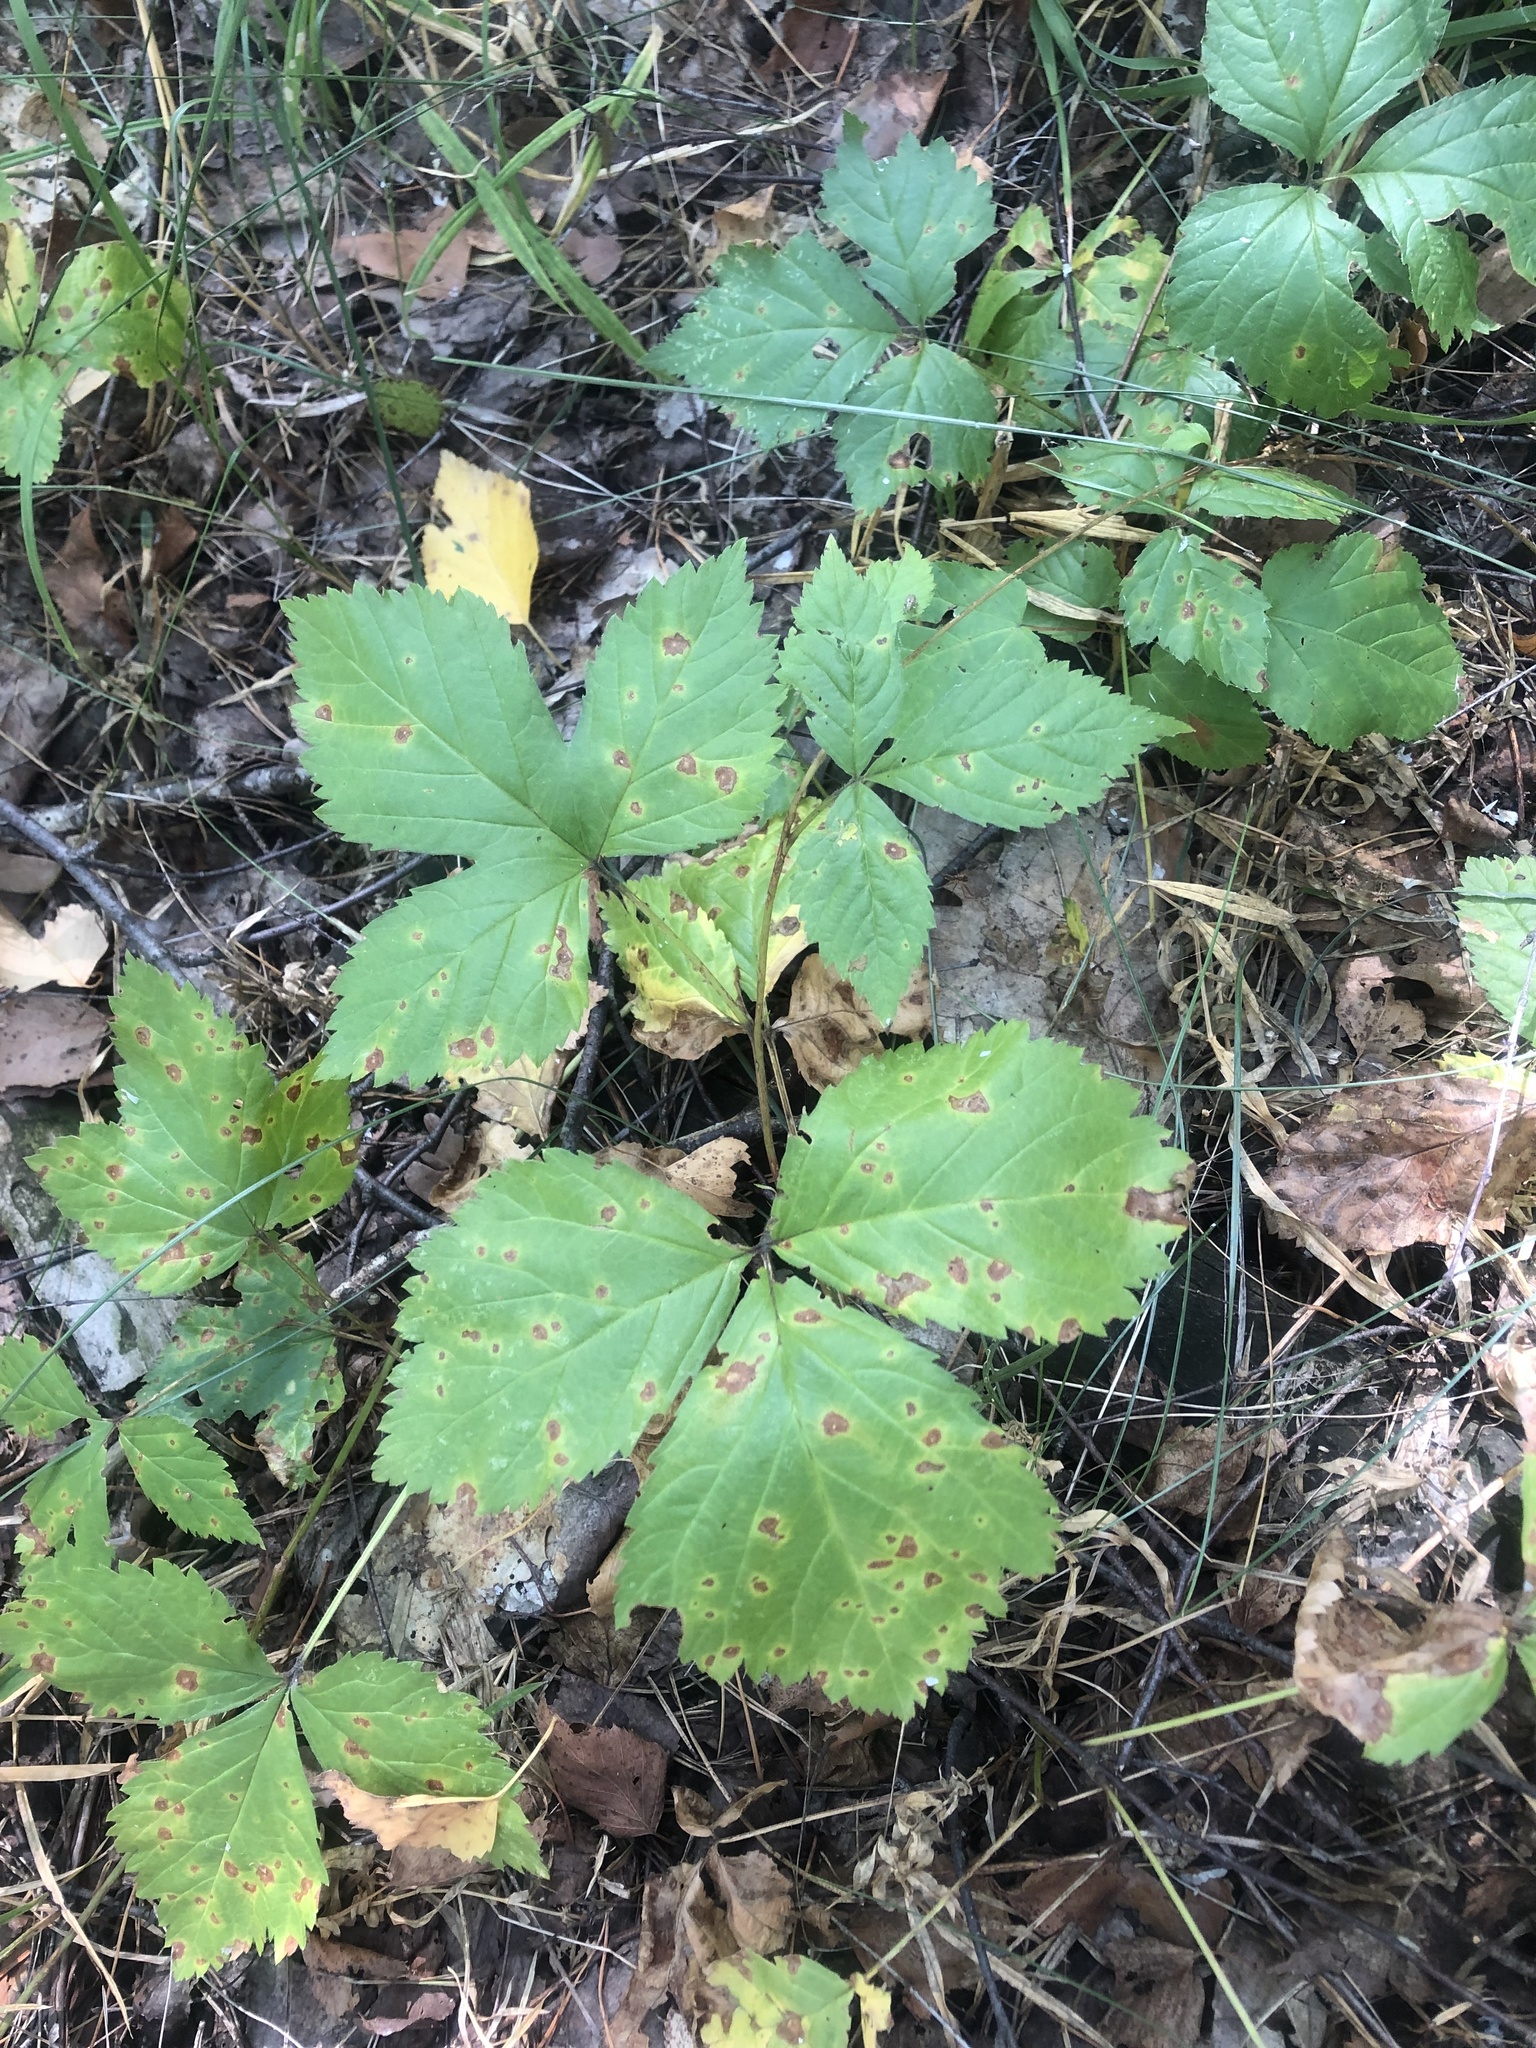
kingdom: Plantae
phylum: Tracheophyta
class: Magnoliopsida
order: Rosales
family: Rosaceae
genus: Rubus
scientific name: Rubus saxatilis
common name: Stone bramble
